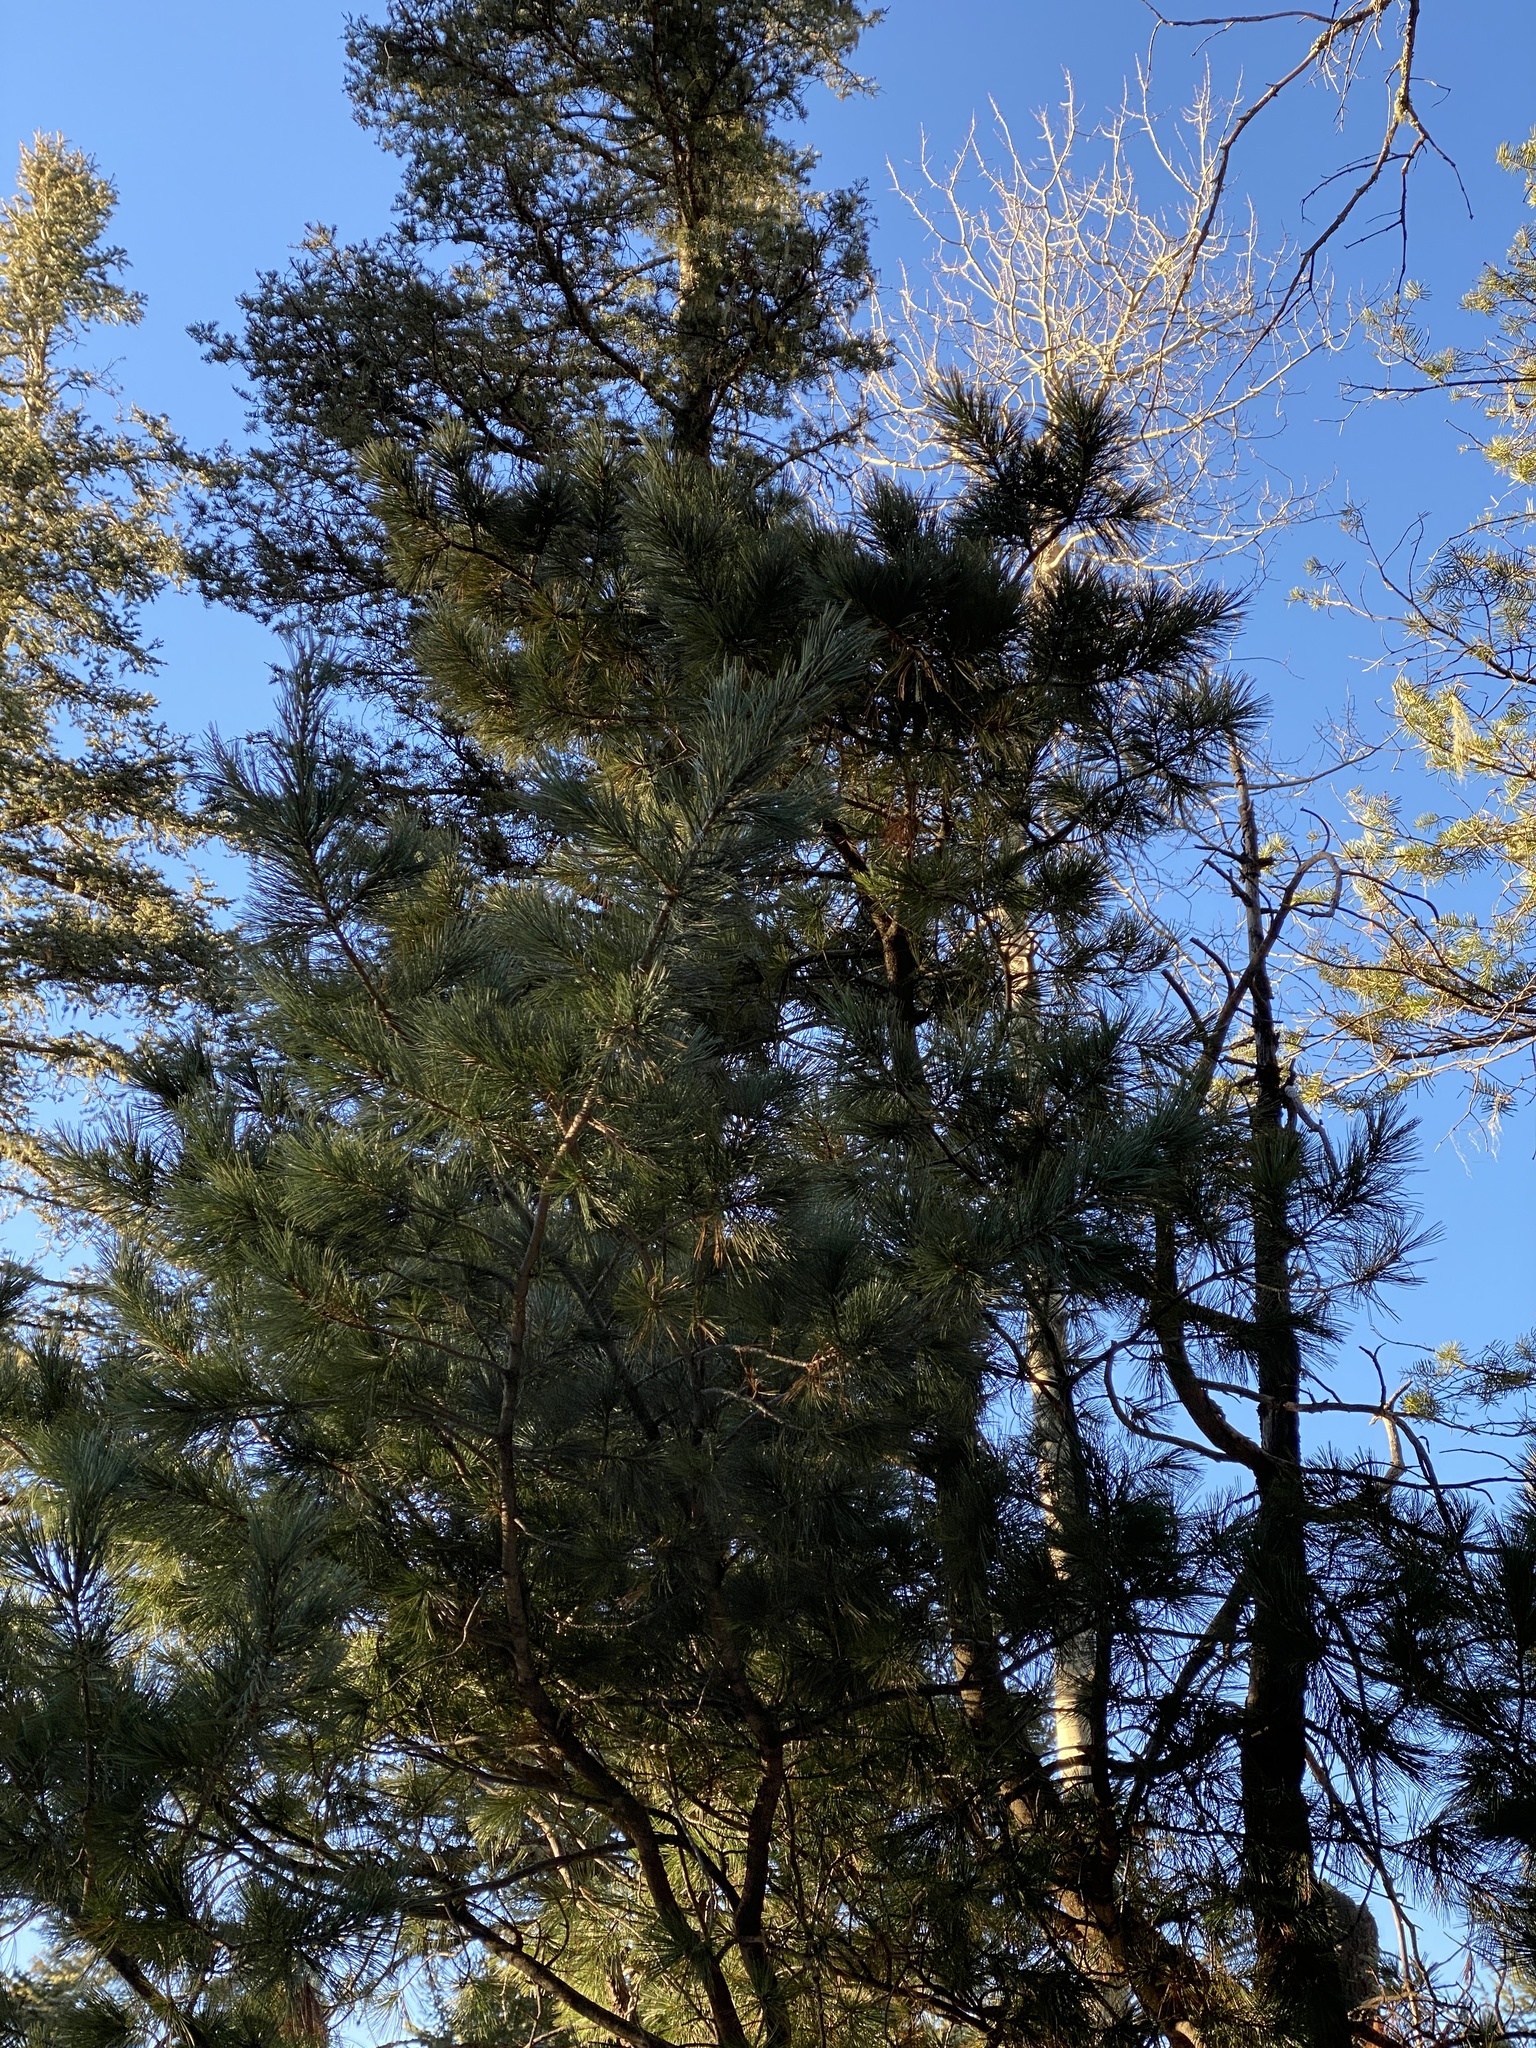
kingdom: Plantae
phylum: Tracheophyta
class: Pinopsida
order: Pinales
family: Pinaceae
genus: Pinus
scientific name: Pinus strobiformis
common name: Southwestern white pine
